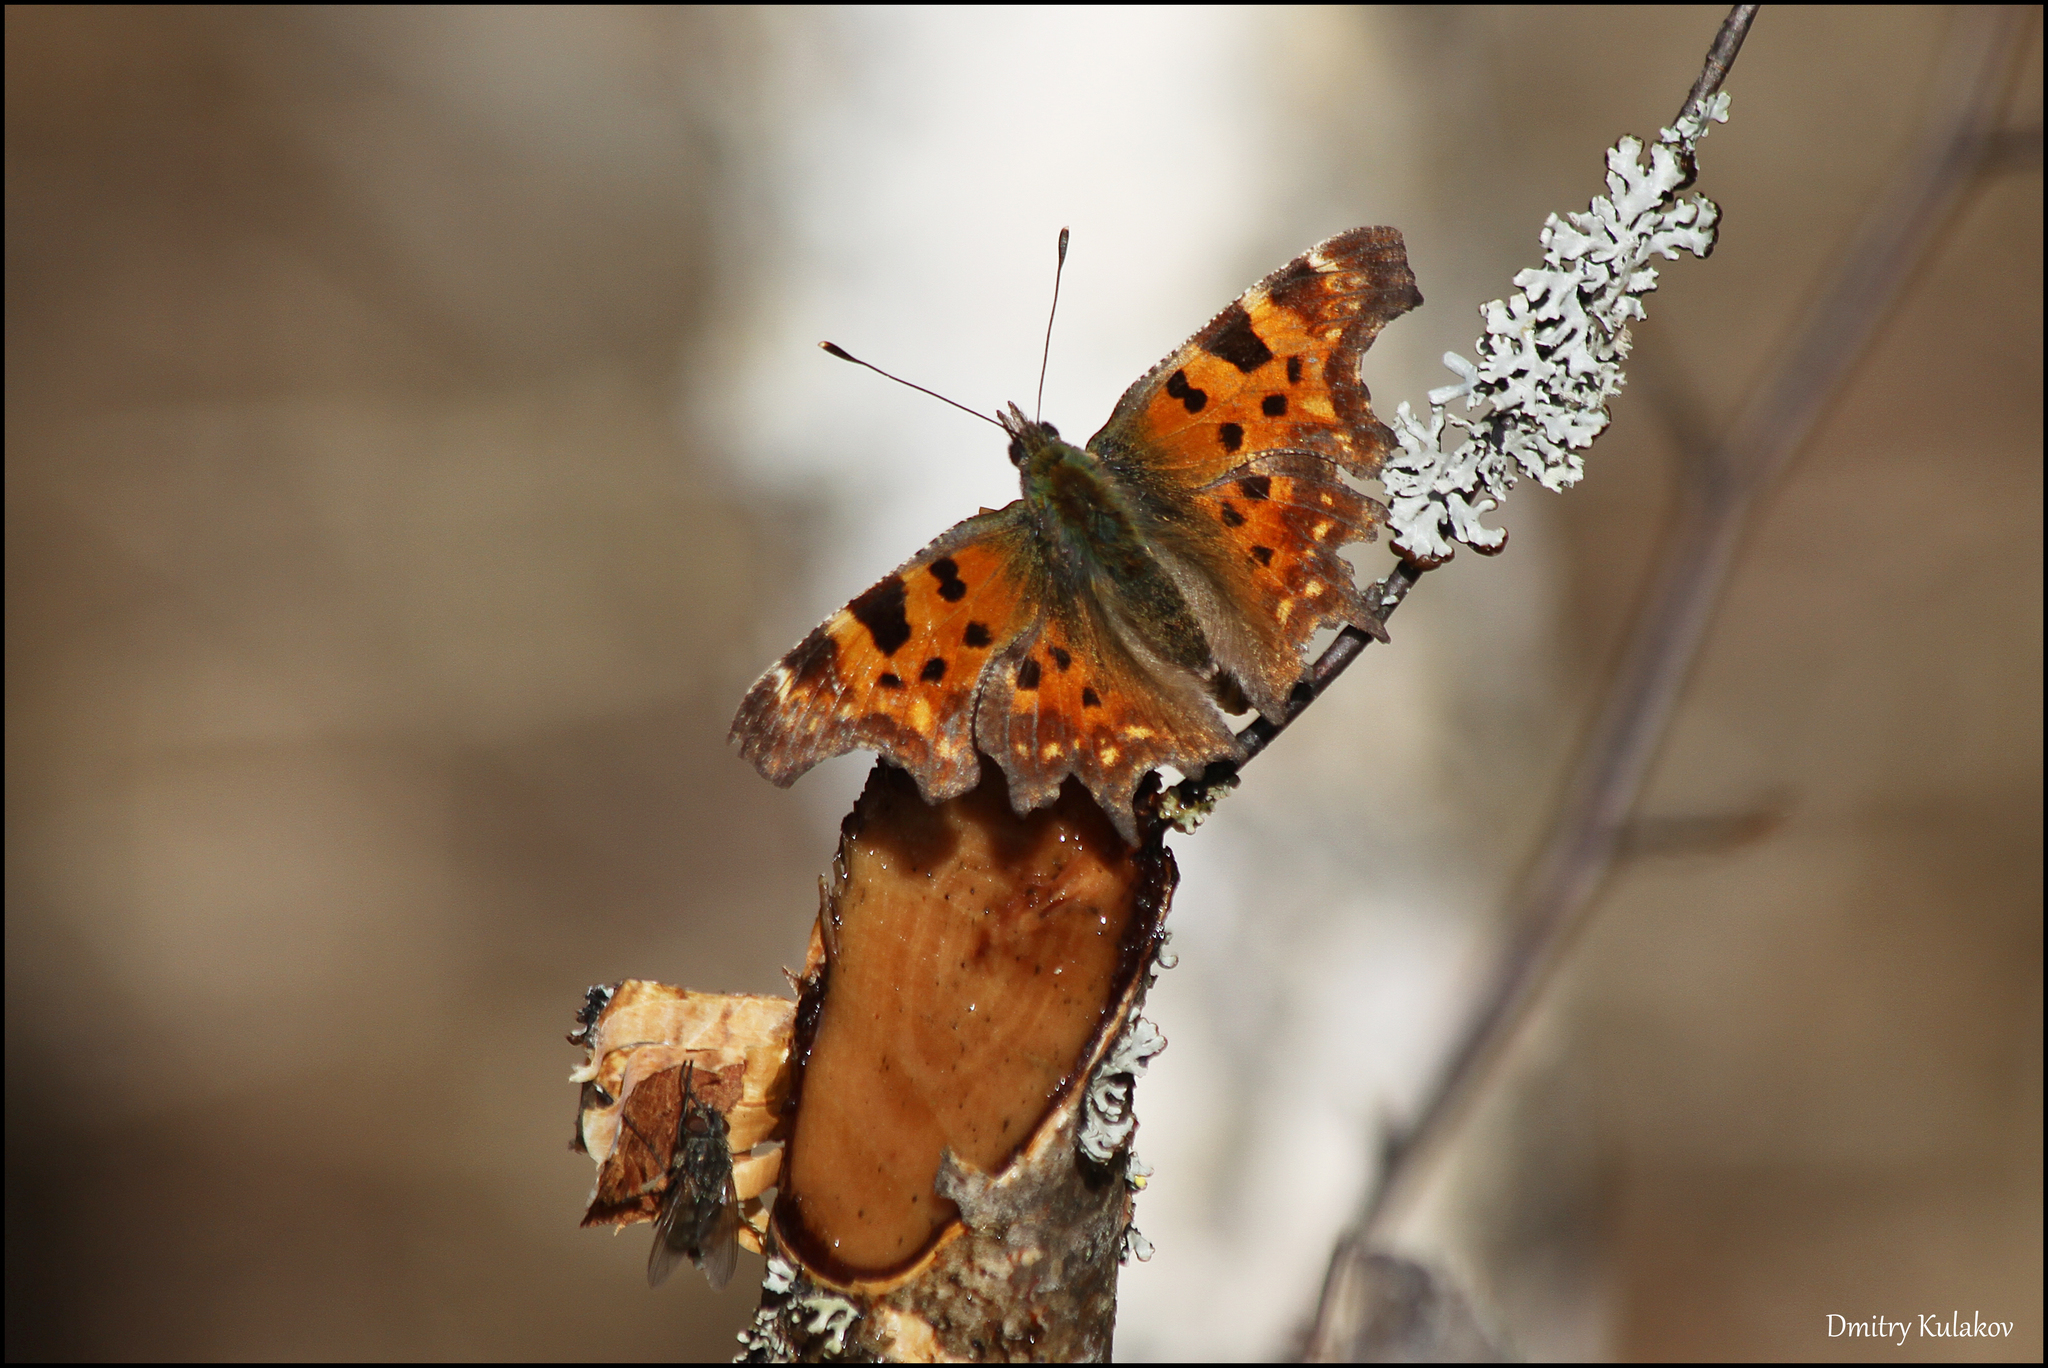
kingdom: Animalia
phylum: Arthropoda
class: Insecta
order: Lepidoptera
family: Nymphalidae
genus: Polygonia
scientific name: Polygonia c-album
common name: Comma
